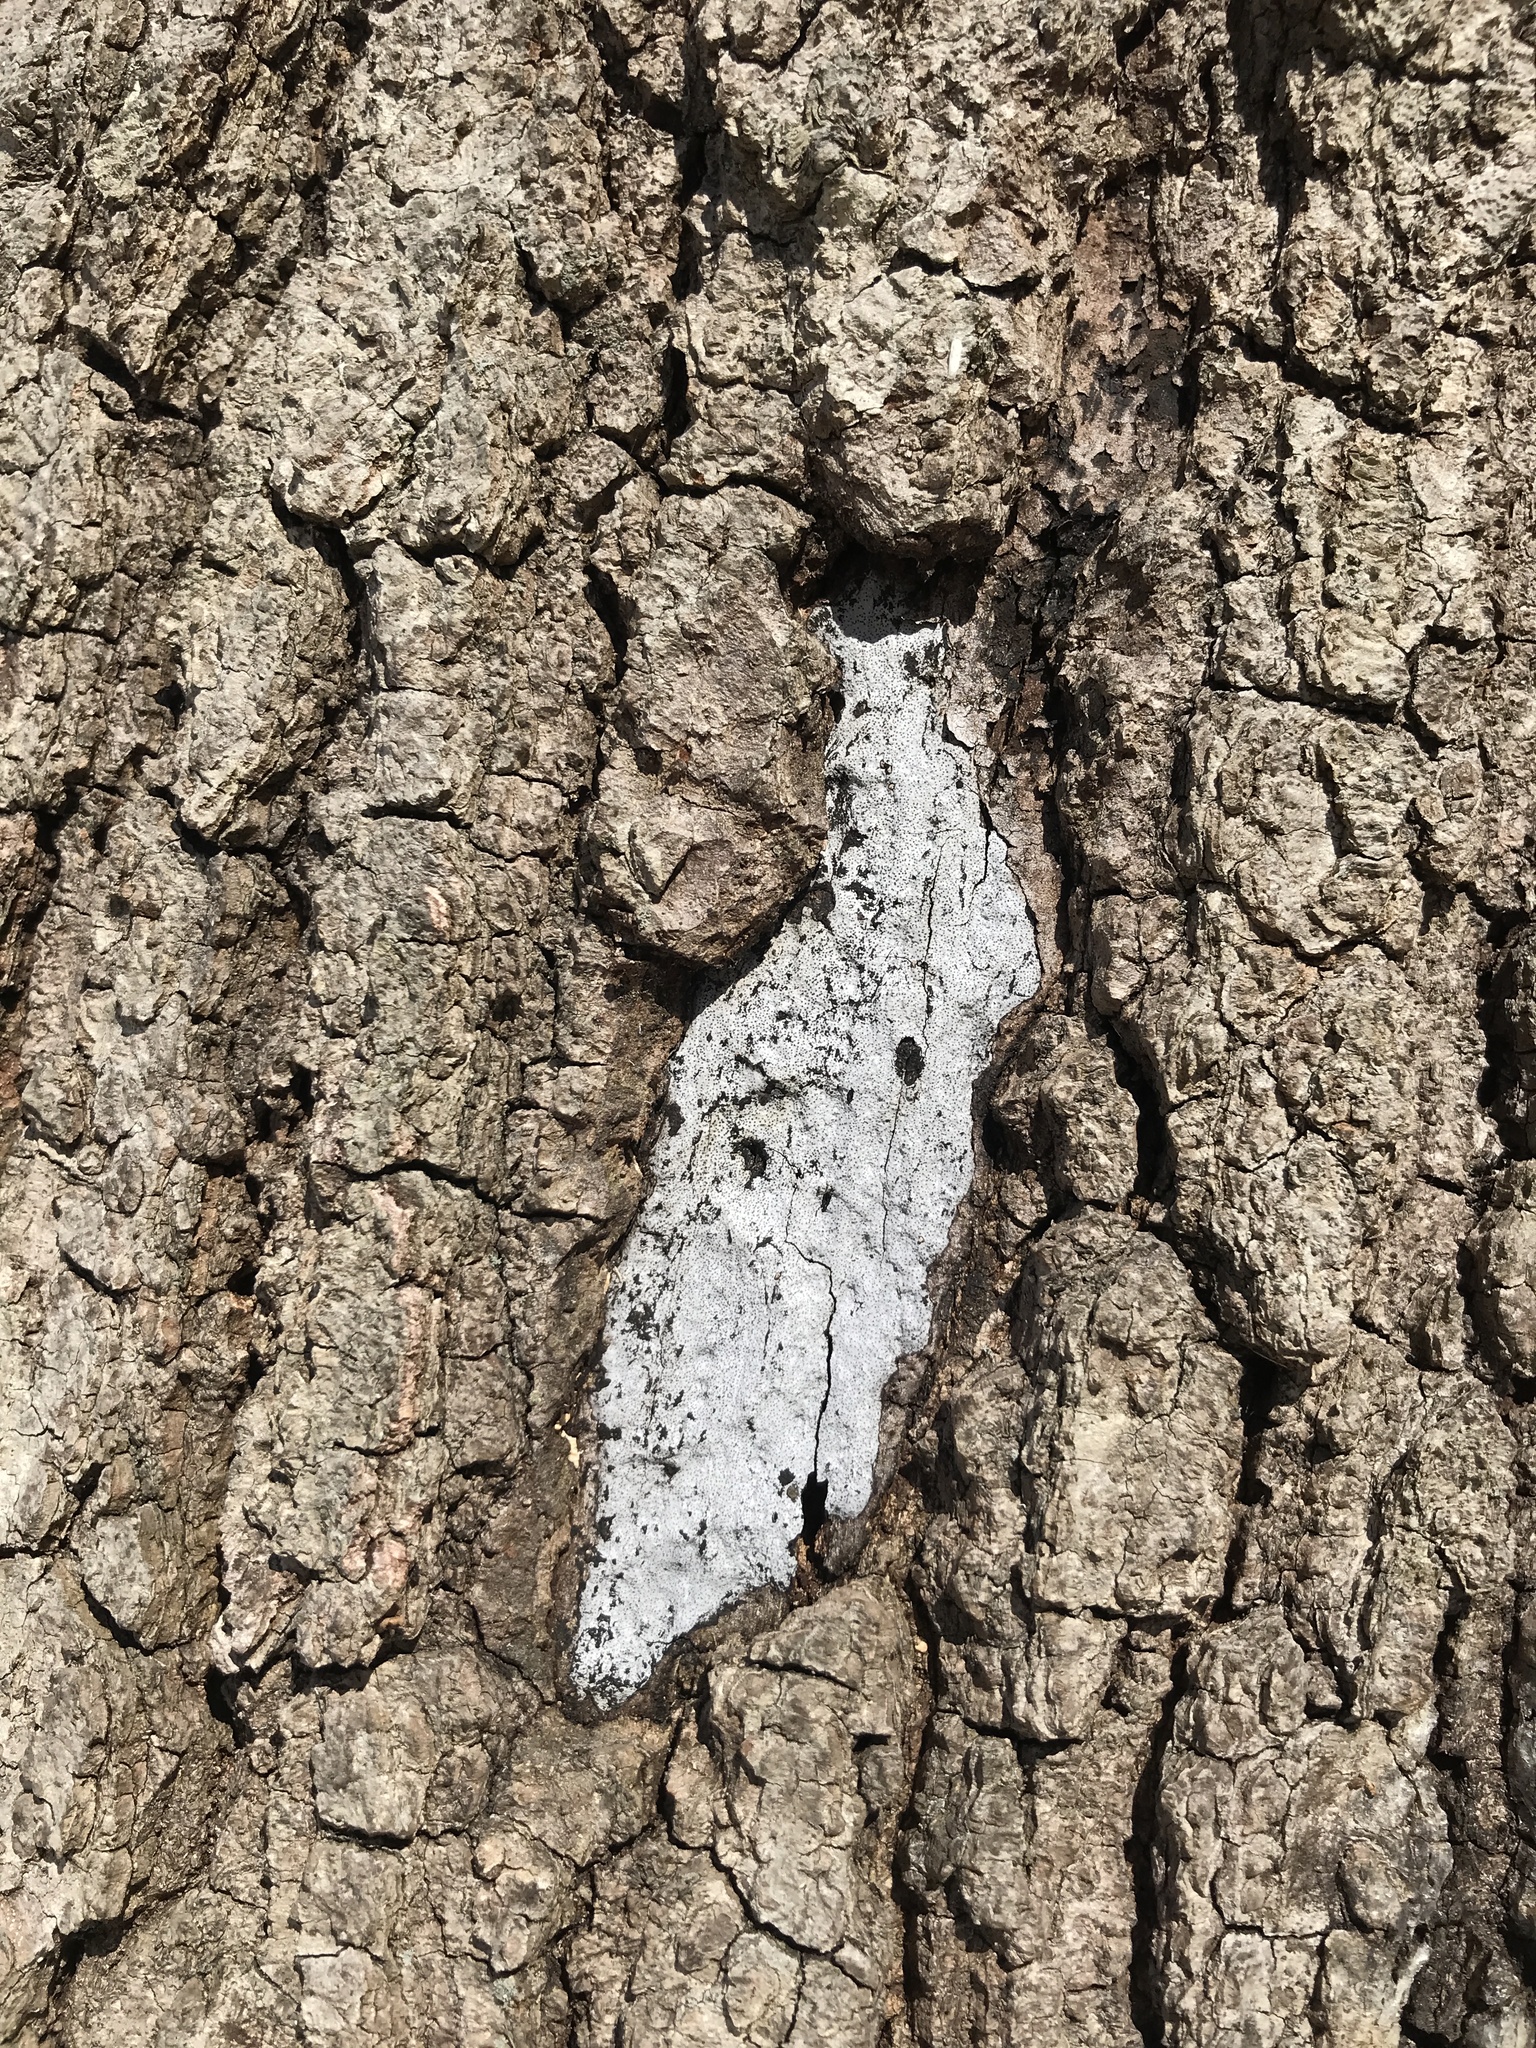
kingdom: Fungi
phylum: Ascomycota
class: Sordariomycetes
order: Xylariales
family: Graphostromataceae
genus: Biscogniauxia
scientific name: Biscogniauxia atropunctata
